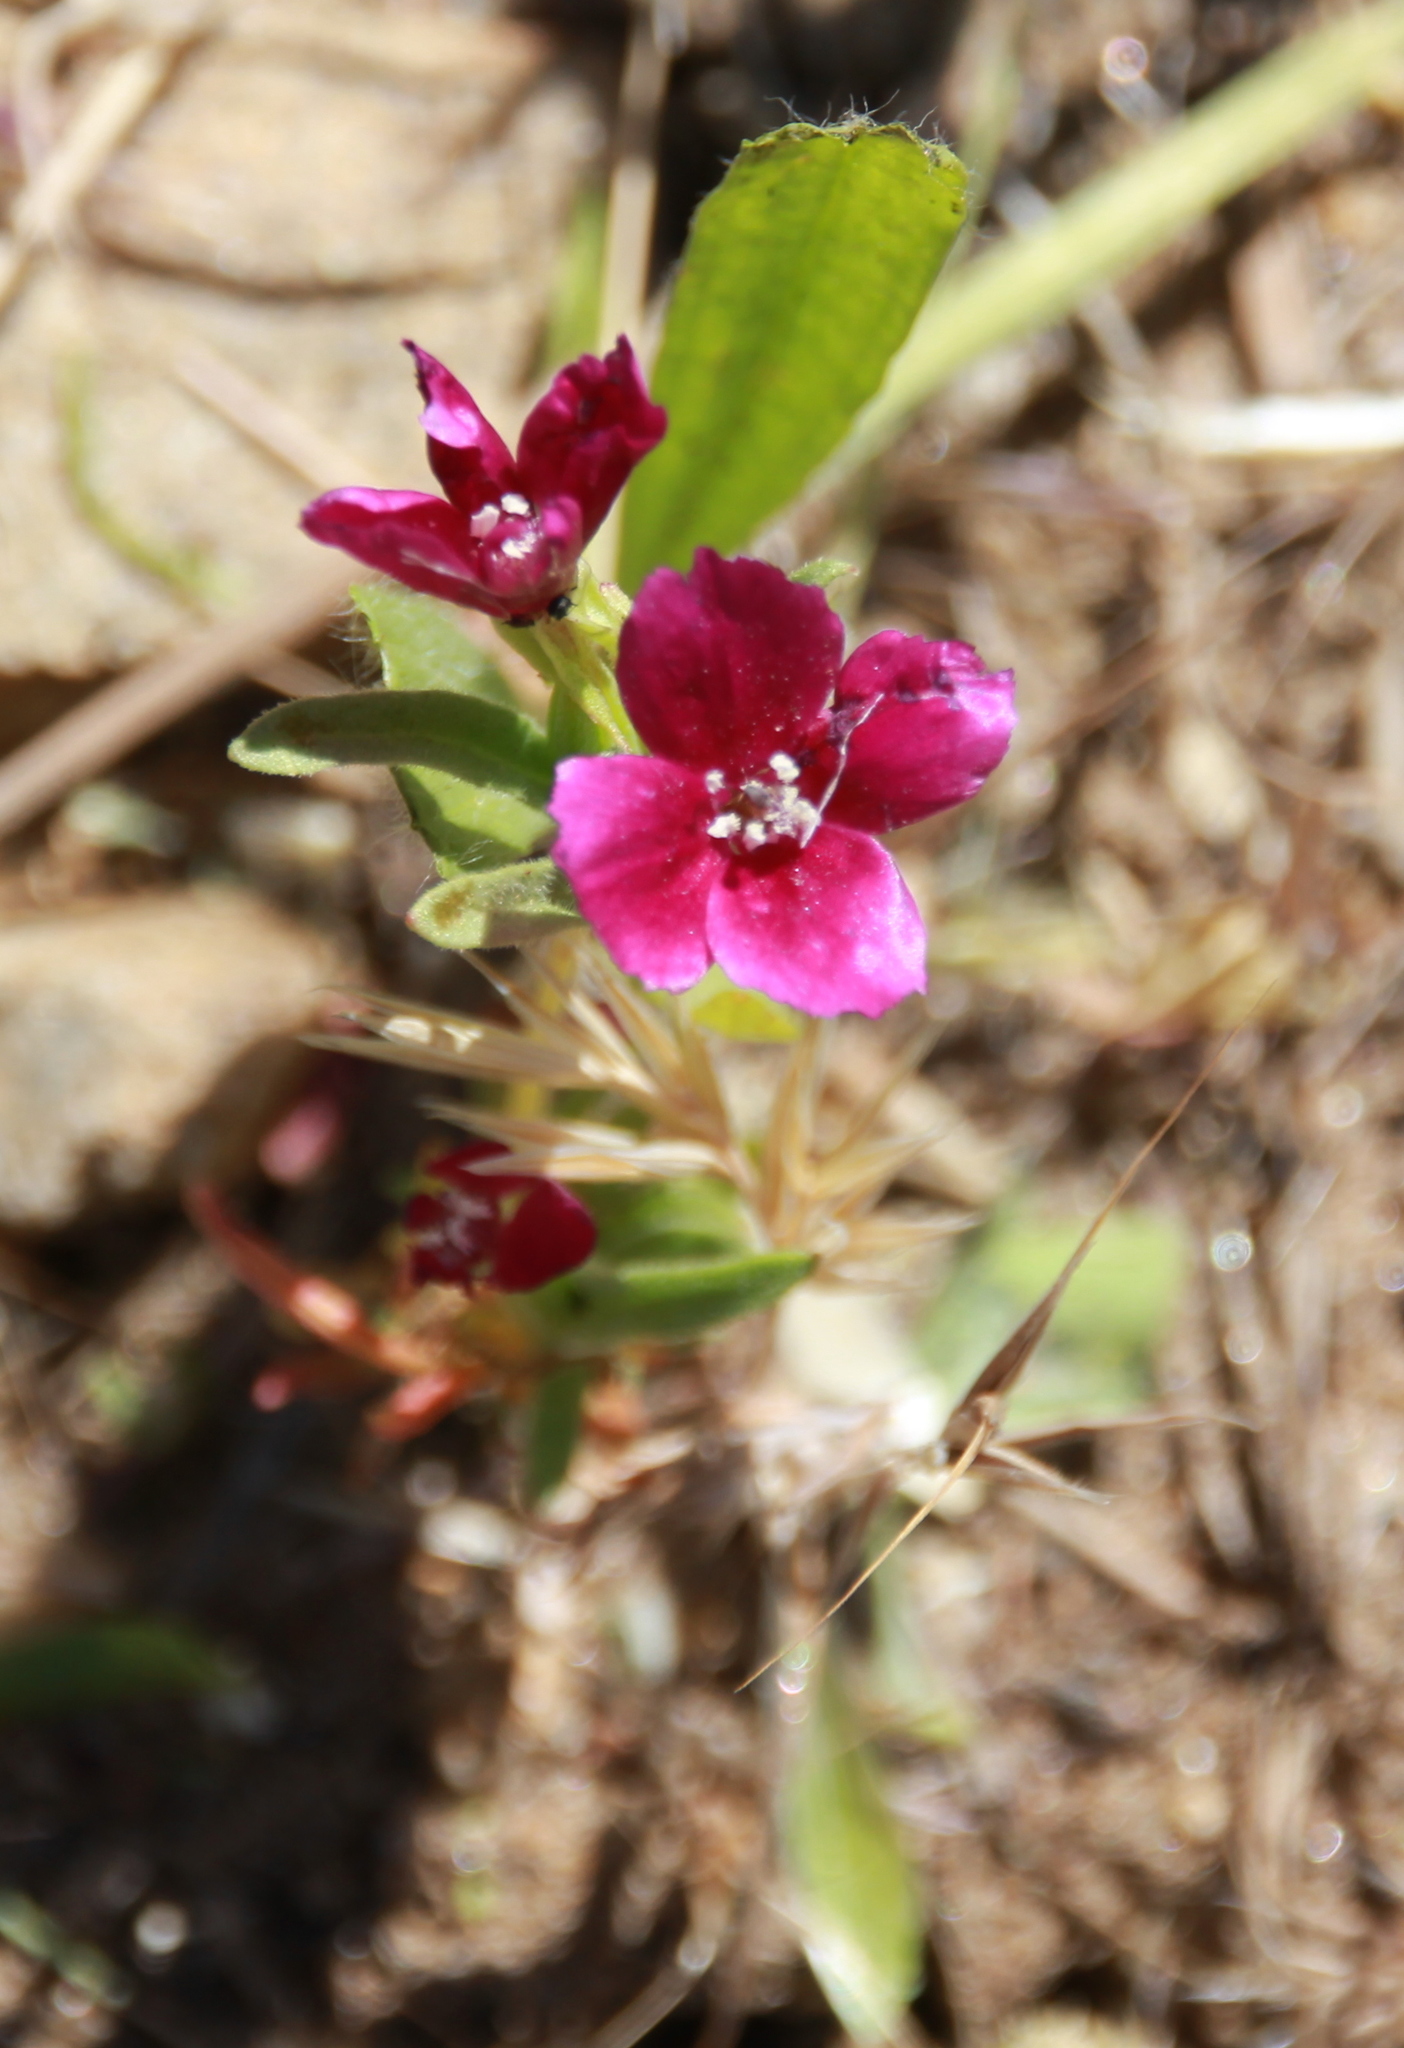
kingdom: Plantae
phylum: Tracheophyta
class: Magnoliopsida
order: Myrtales
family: Onagraceae
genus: Clarkia
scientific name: Clarkia purpurea
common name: Purple clarkia
